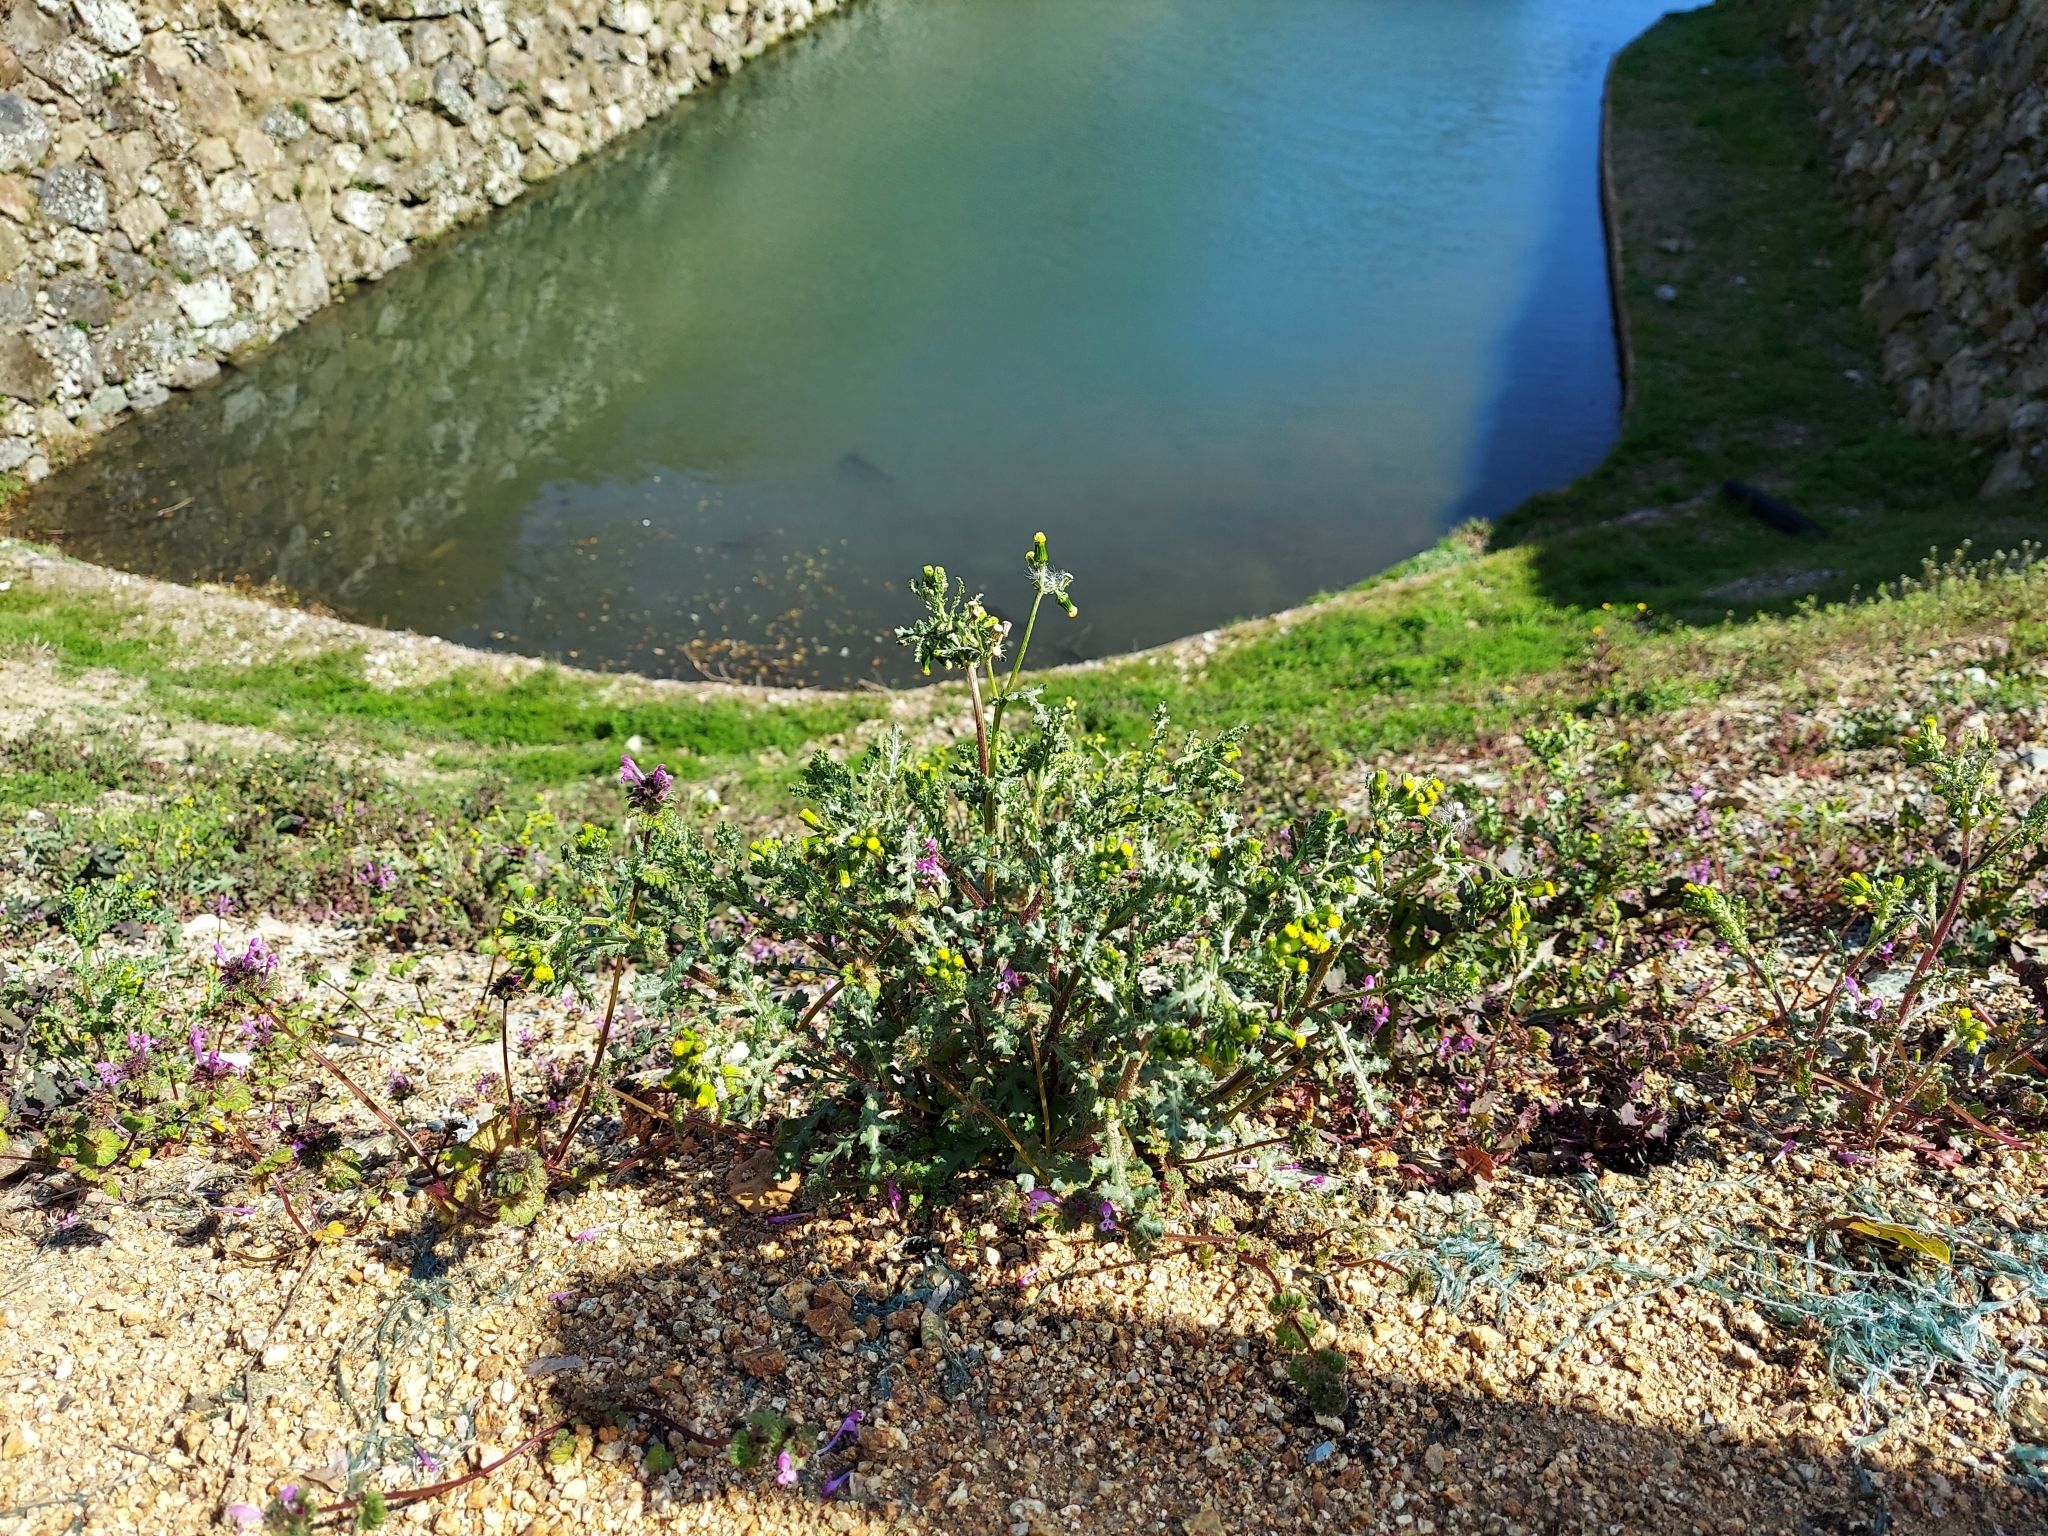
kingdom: Plantae
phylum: Tracheophyta
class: Magnoliopsida
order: Asterales
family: Asteraceae
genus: Senecio
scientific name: Senecio vulgaris
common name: Old-man-in-the-spring
